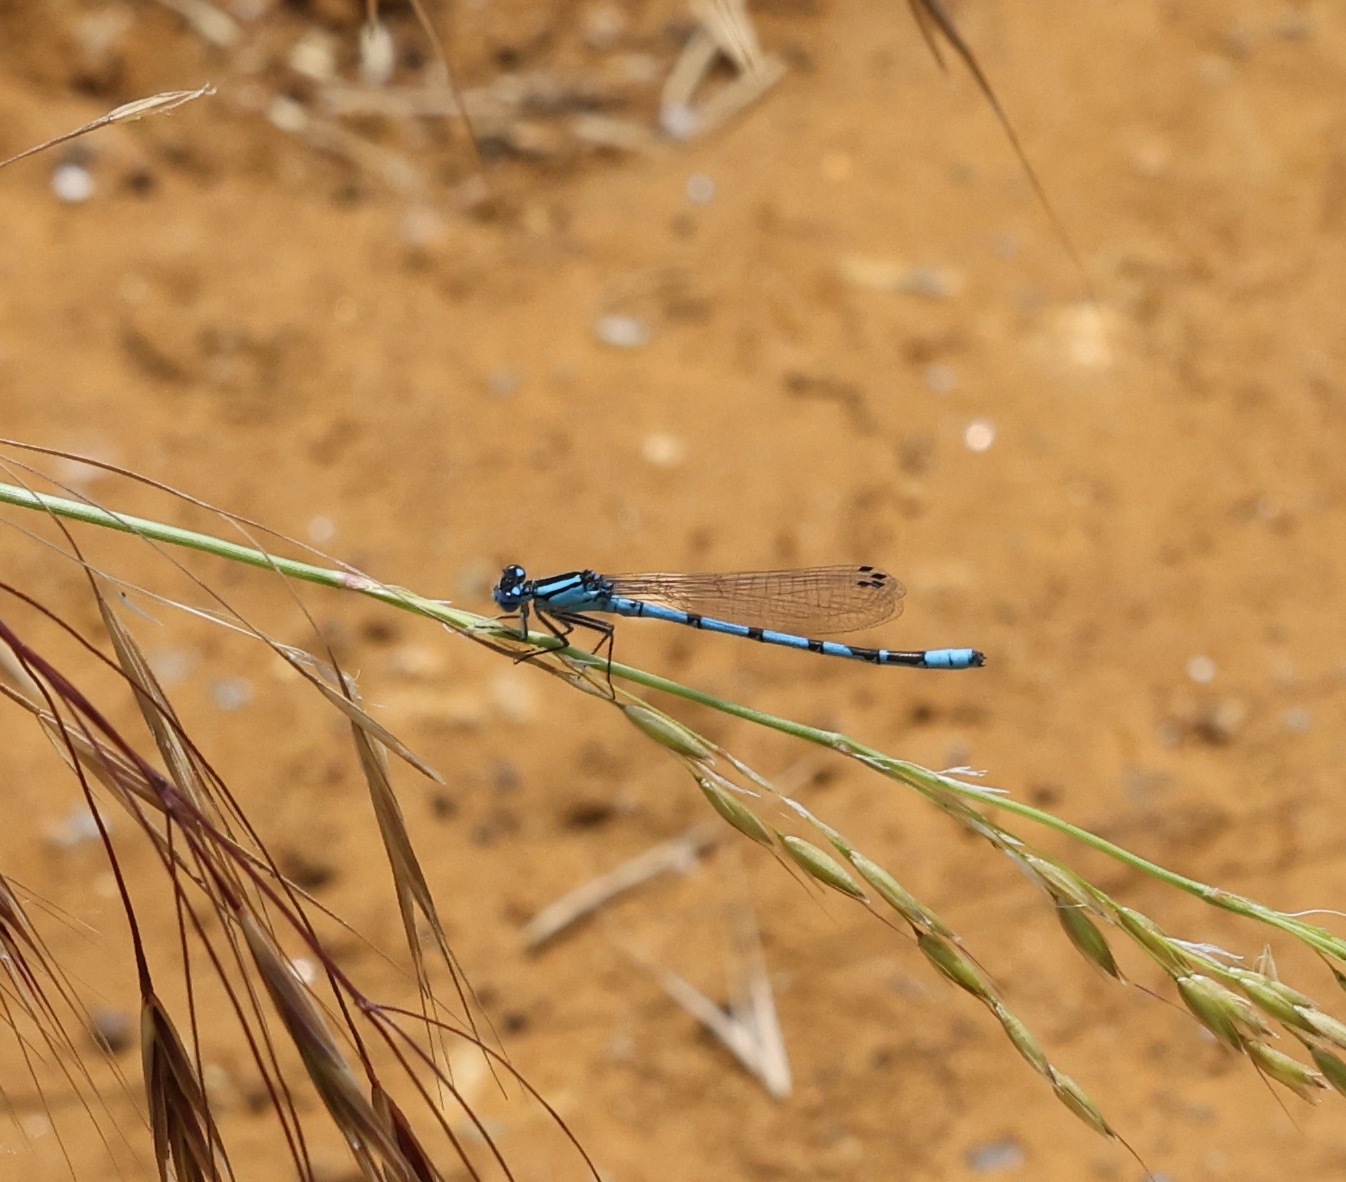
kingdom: Animalia
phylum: Arthropoda
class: Insecta
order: Odonata
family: Coenagrionidae
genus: Enallagma
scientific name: Enallagma cyathigerum
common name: Common blue damselfly
